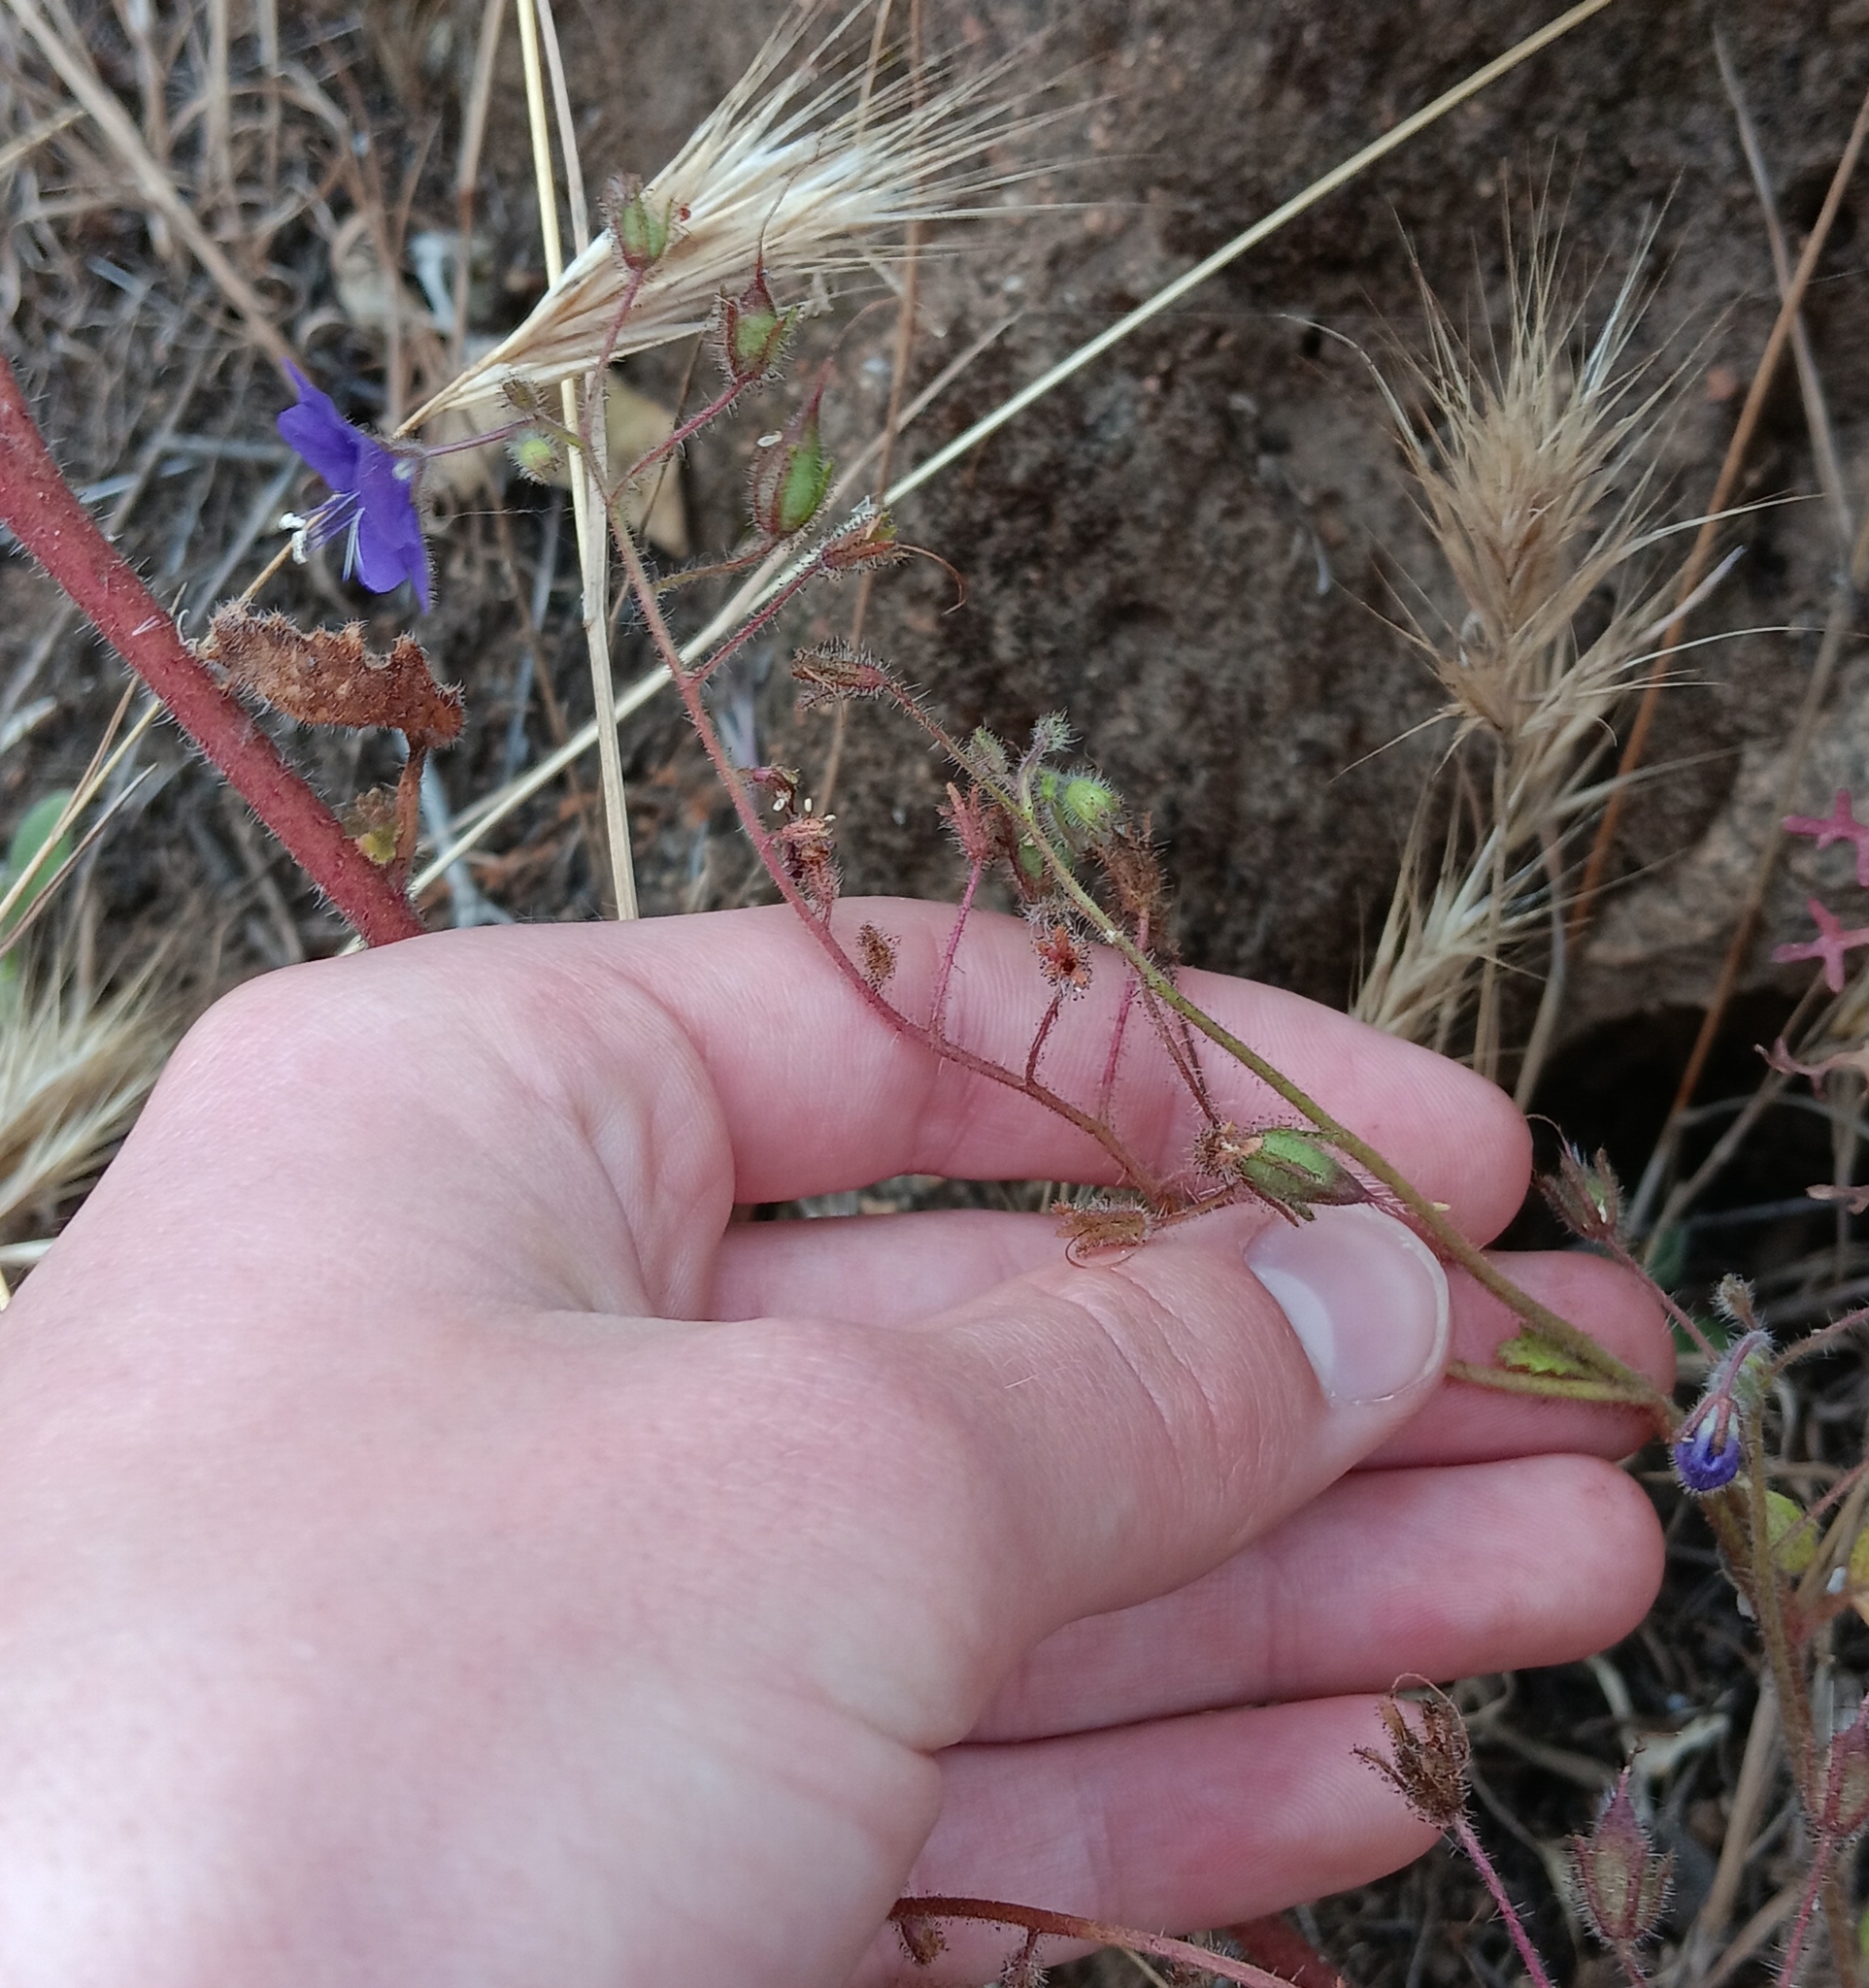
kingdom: Plantae
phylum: Tracheophyta
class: Magnoliopsida
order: Boraginales
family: Hydrophyllaceae
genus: Phacelia
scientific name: Phacelia parryi
